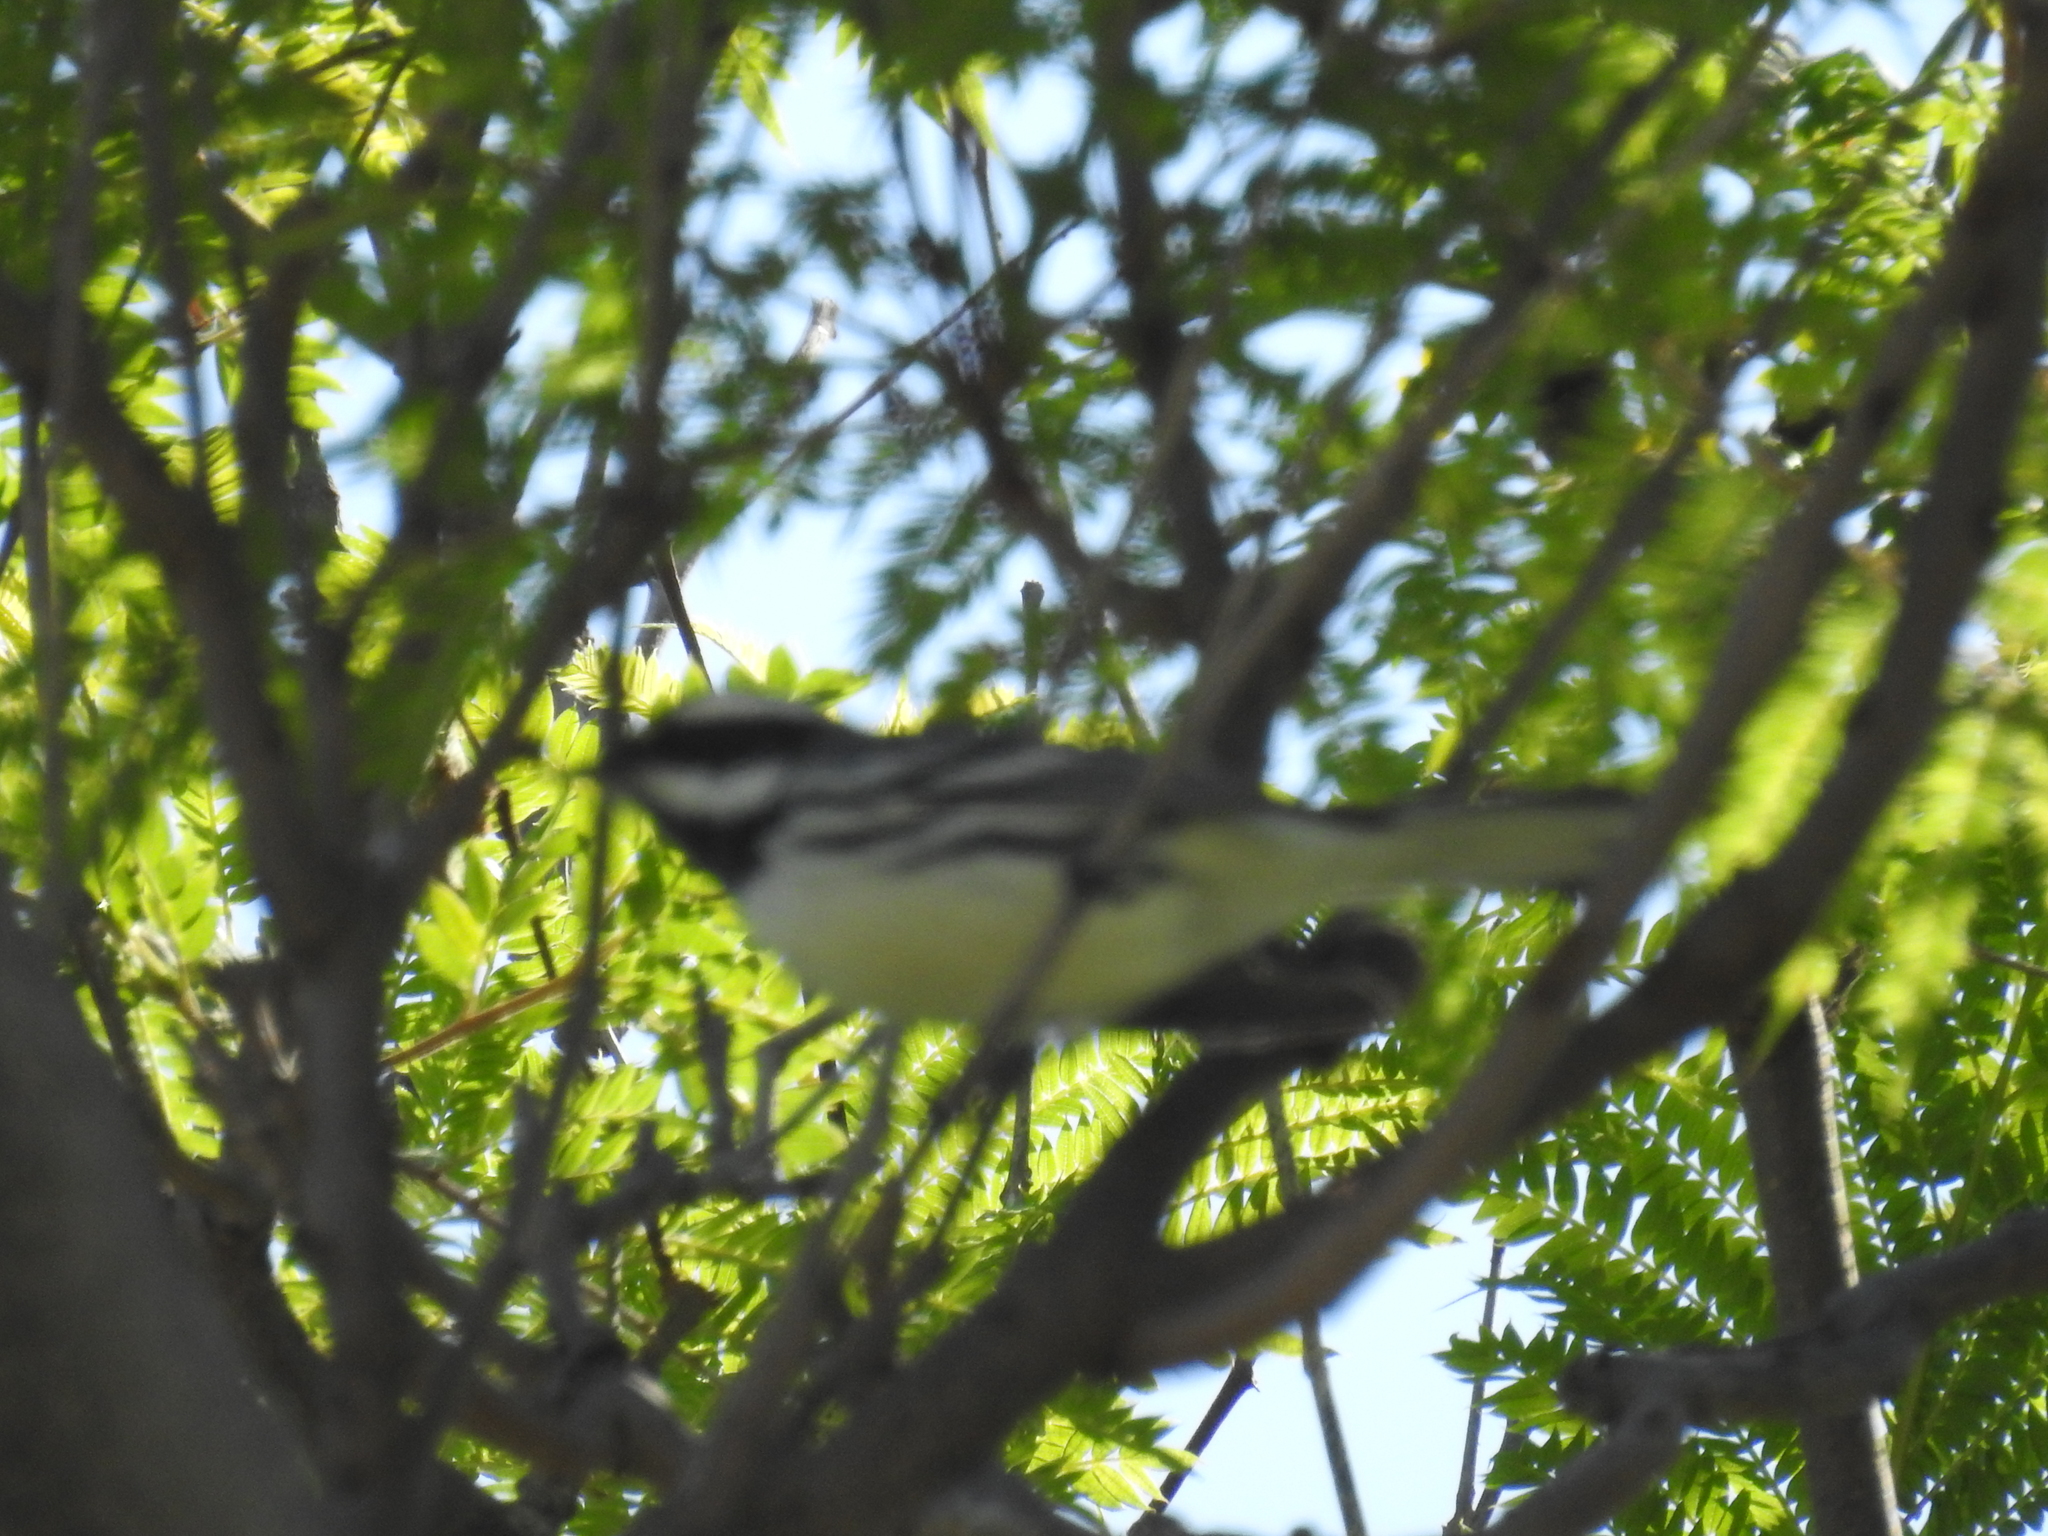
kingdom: Animalia
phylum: Chordata
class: Aves
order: Passeriformes
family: Parulidae
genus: Setophaga
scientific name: Setophaga nigrescens
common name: Black-throated gray warbler
